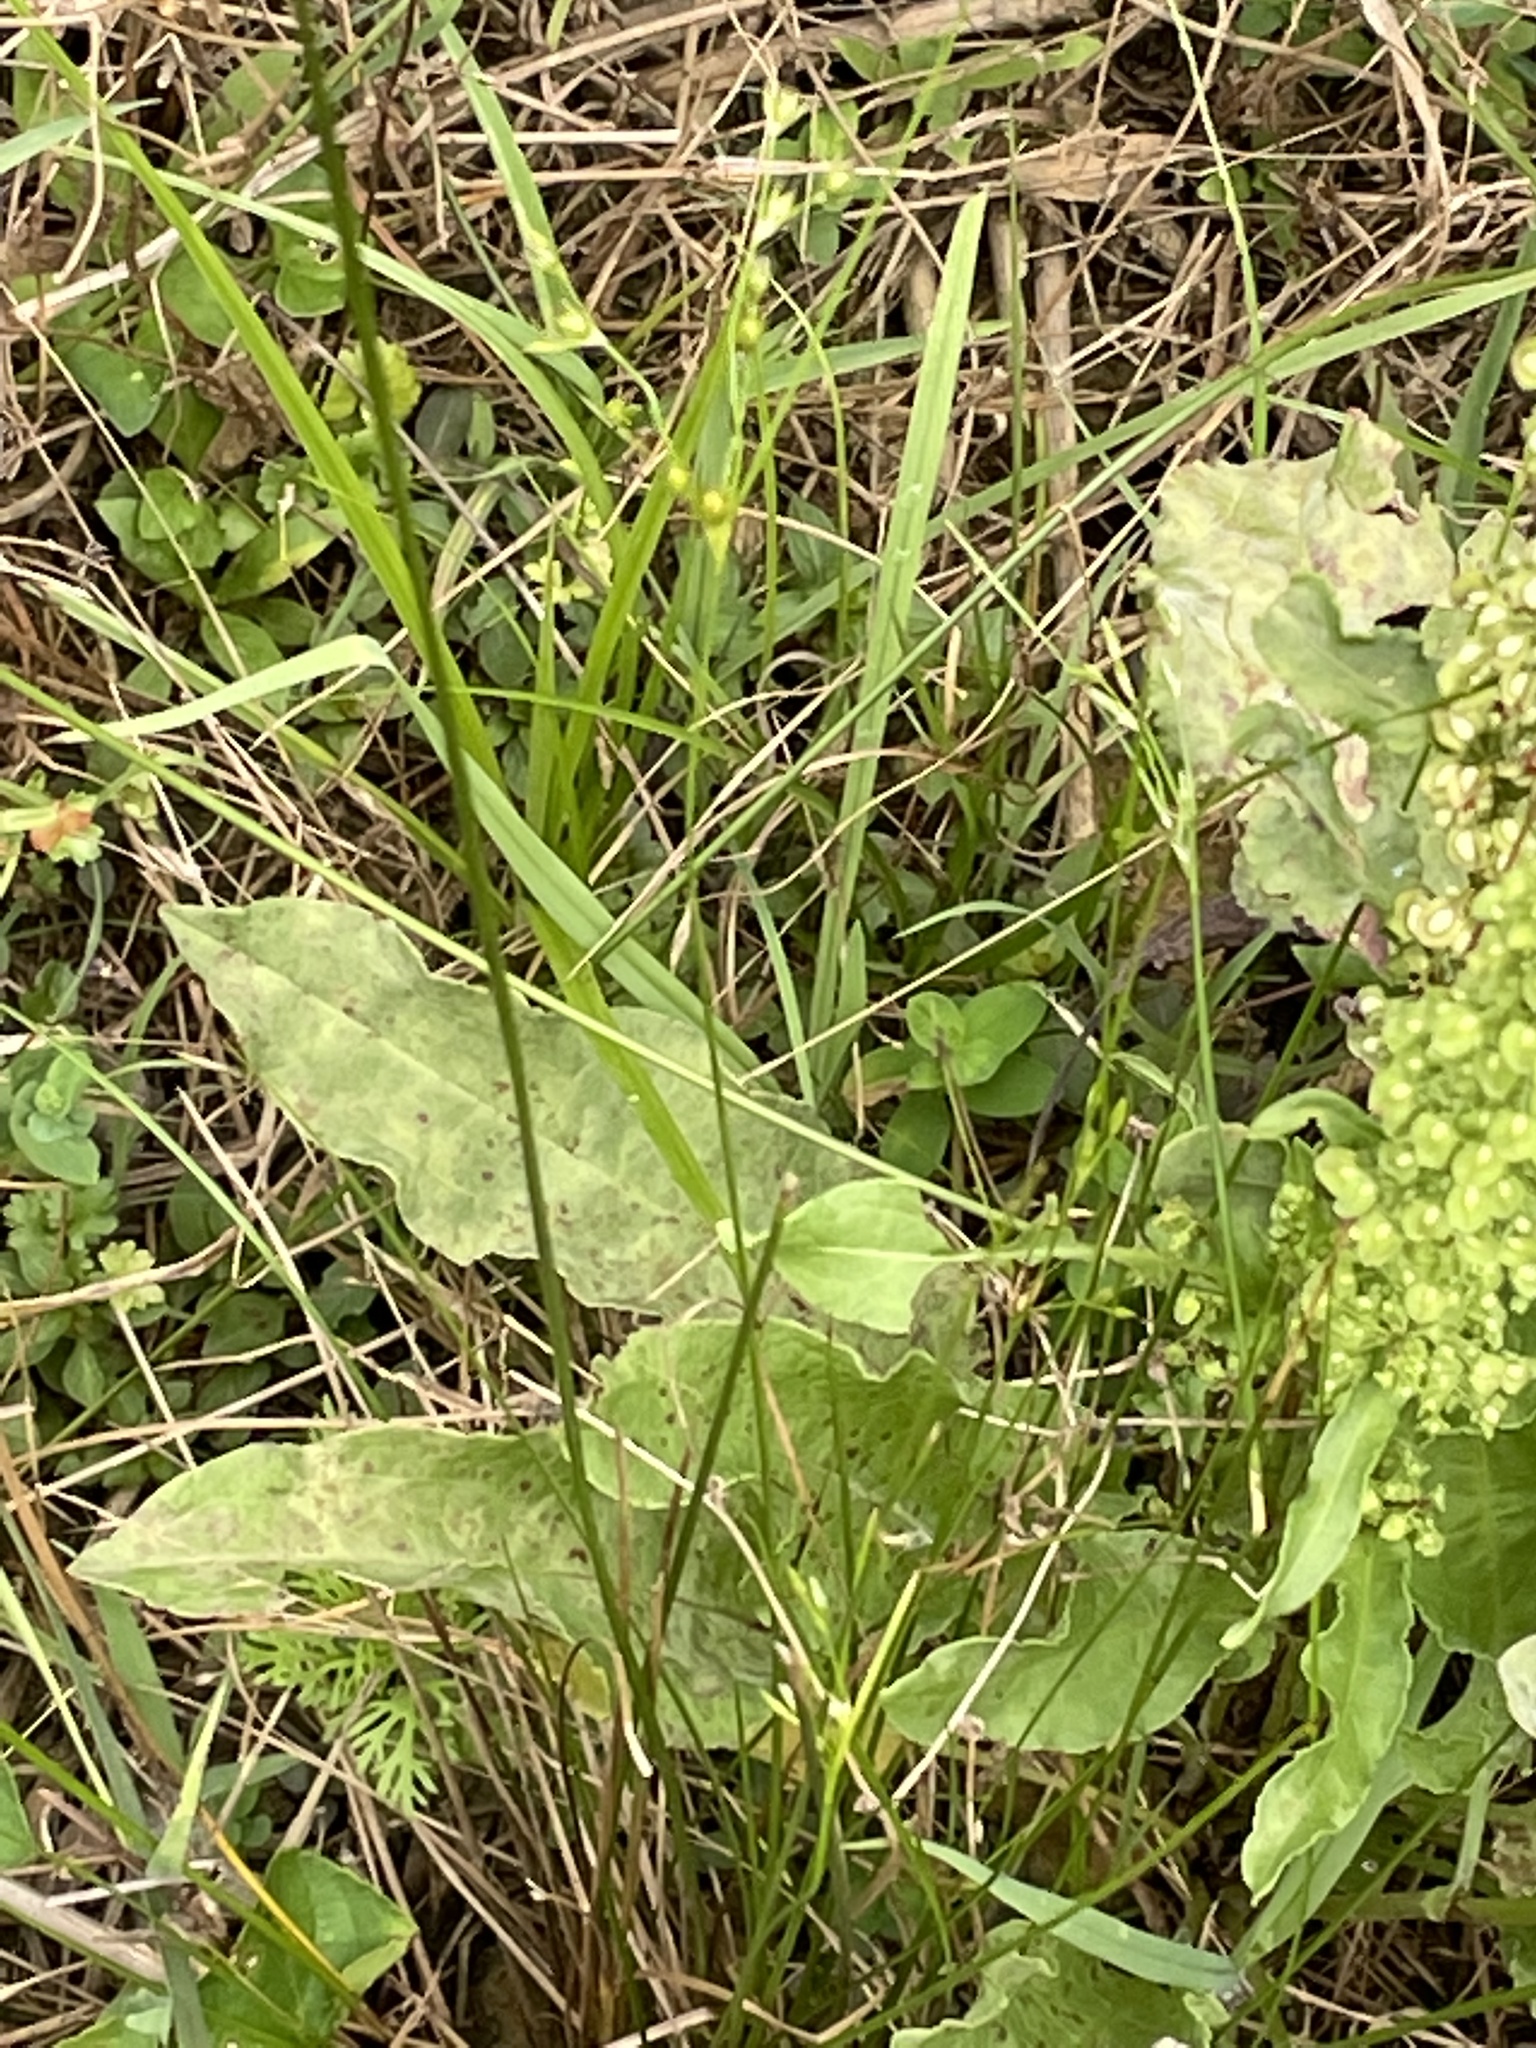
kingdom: Plantae
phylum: Tracheophyta
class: Magnoliopsida
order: Caryophyllales
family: Polygonaceae
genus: Rumex
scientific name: Rumex crispus
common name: Curled dock
